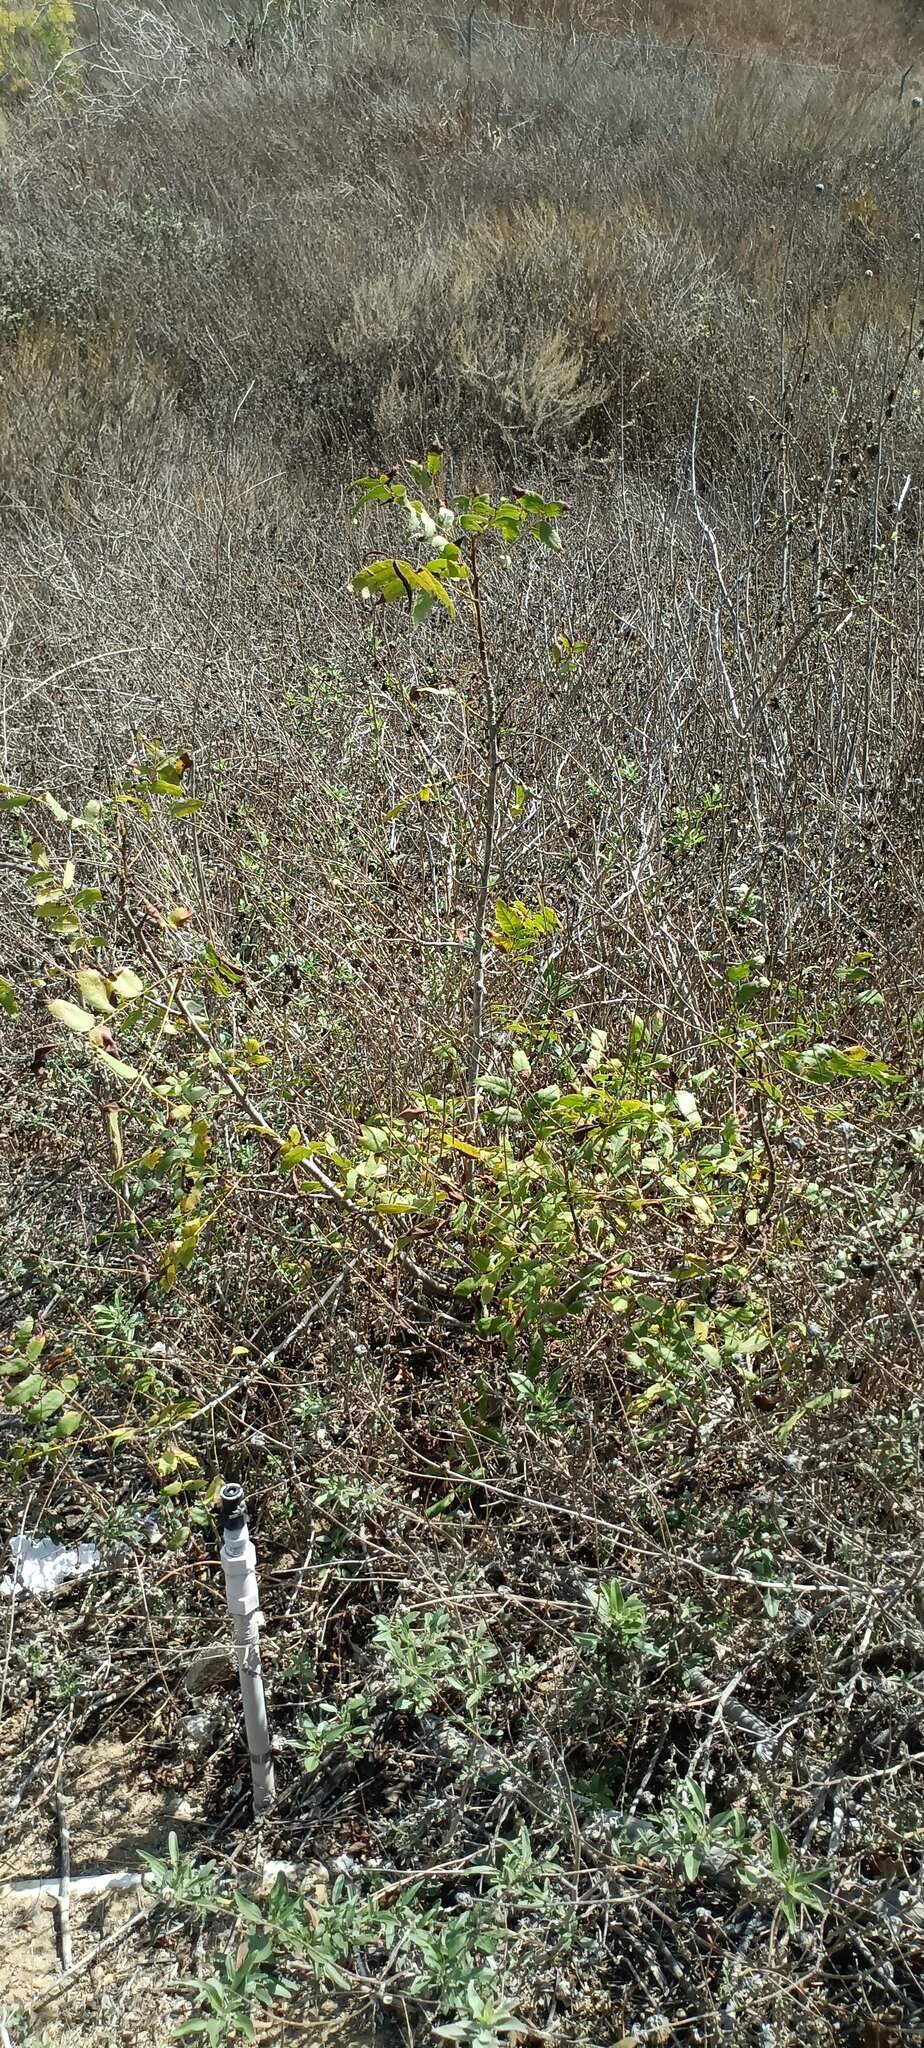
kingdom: Plantae
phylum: Tracheophyta
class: Magnoliopsida
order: Fagales
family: Juglandaceae
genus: Juglans
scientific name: Juglans californica
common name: Southern california black walnut
